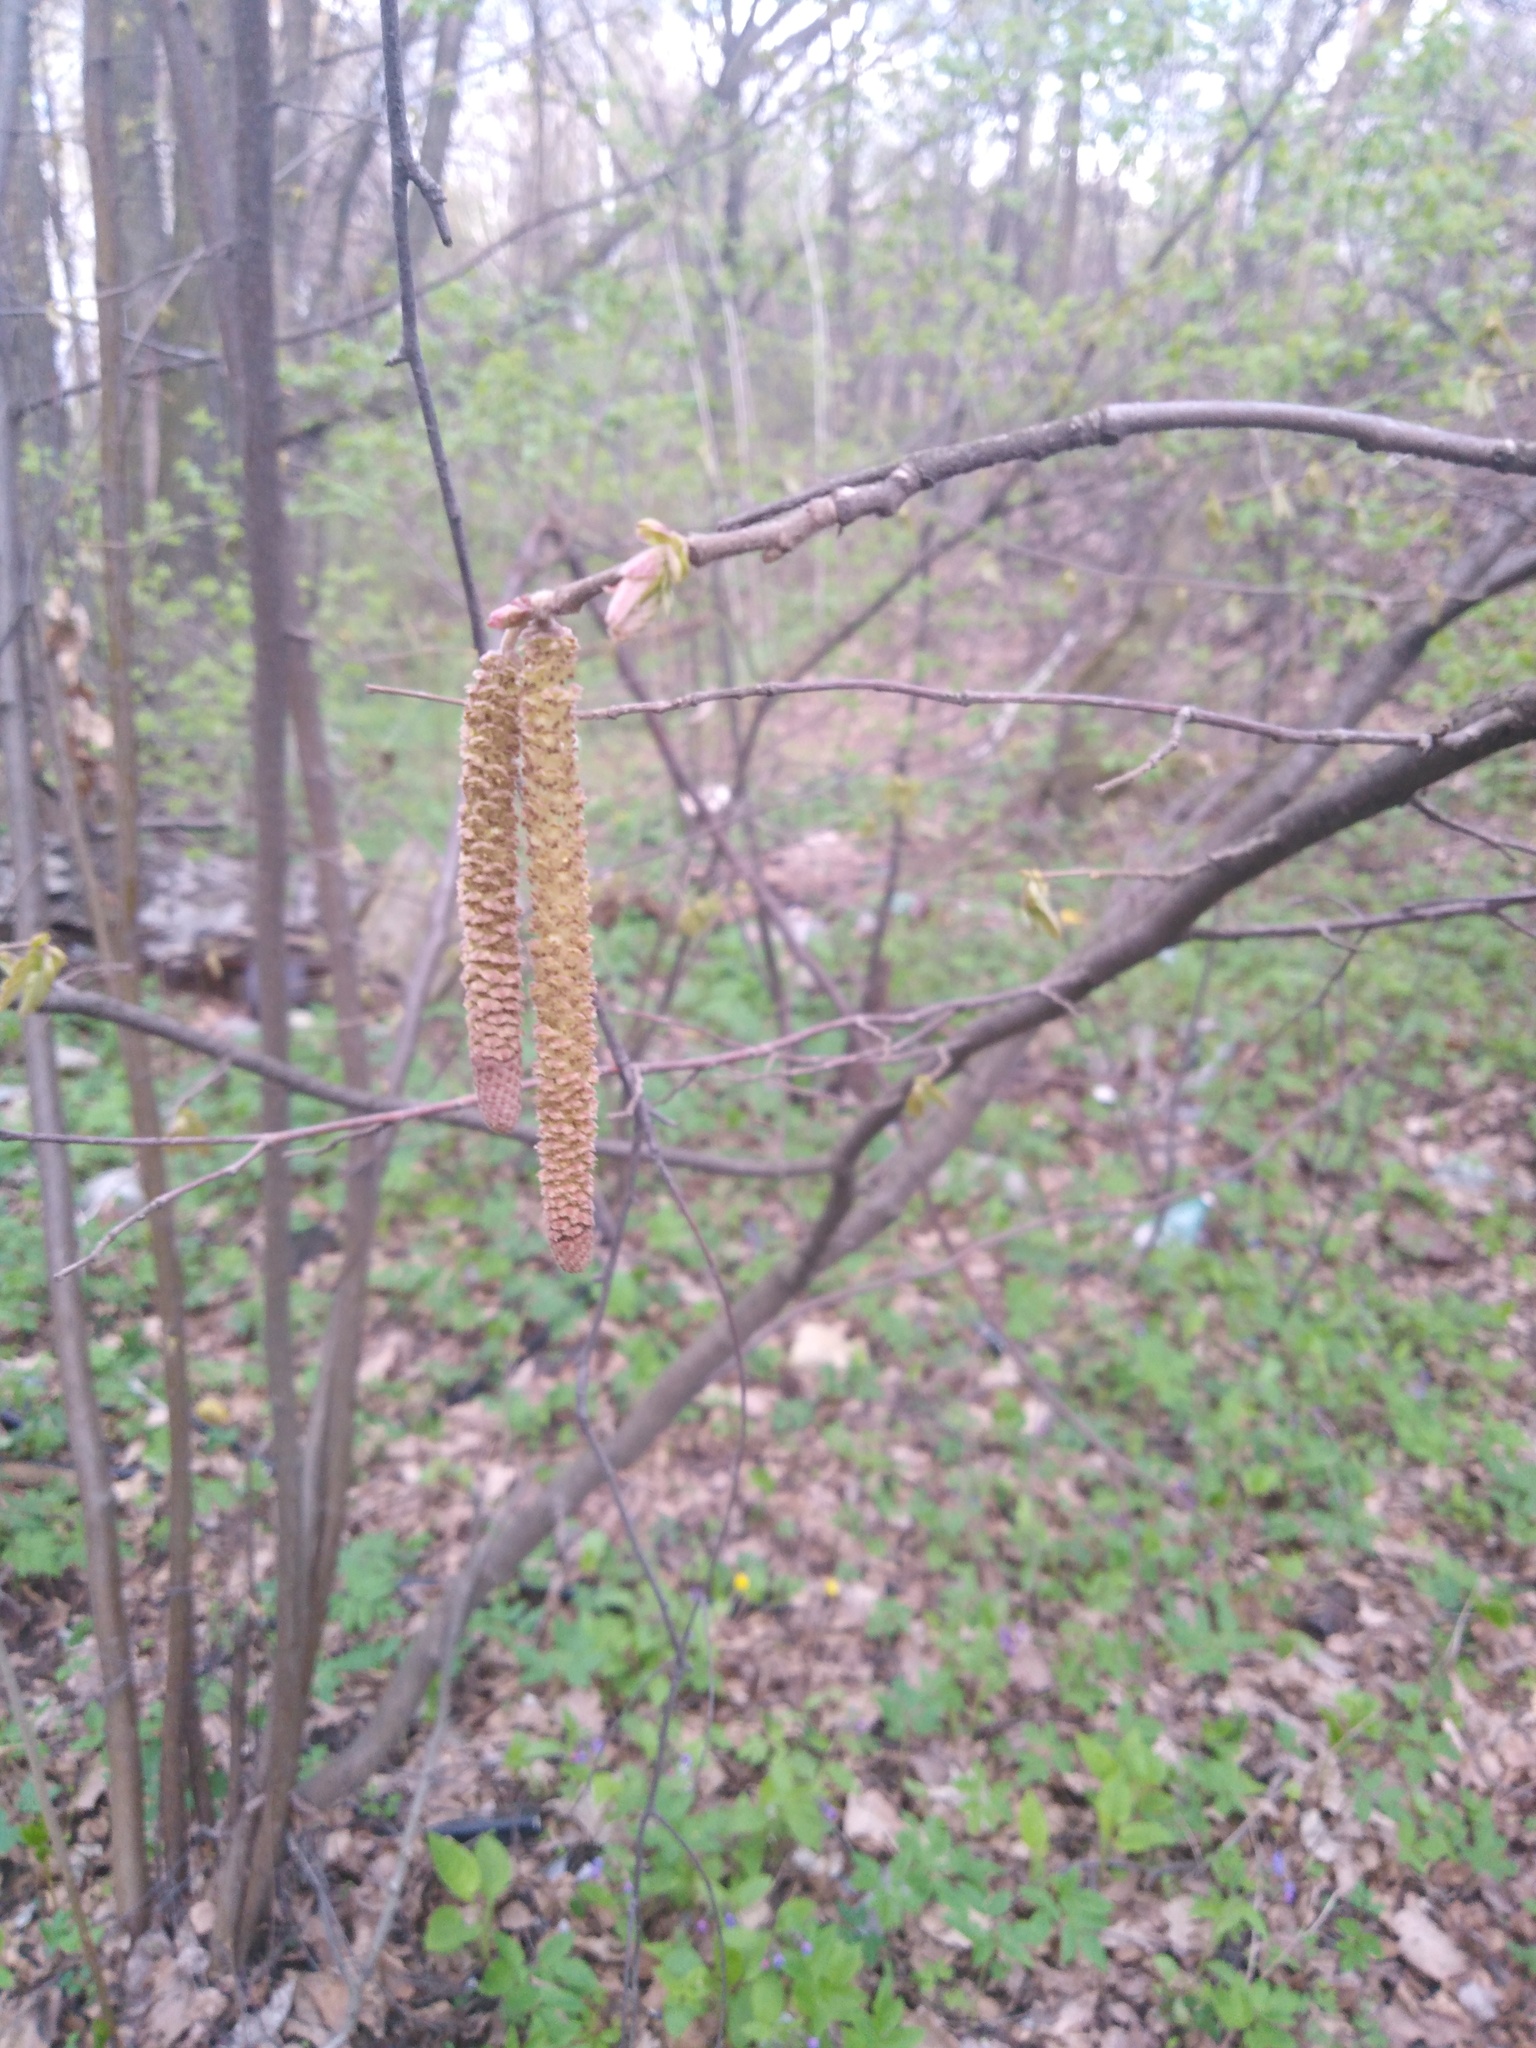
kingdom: Plantae
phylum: Tracheophyta
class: Magnoliopsida
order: Fagales
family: Betulaceae
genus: Corylus
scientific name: Corylus avellana
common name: European hazel
